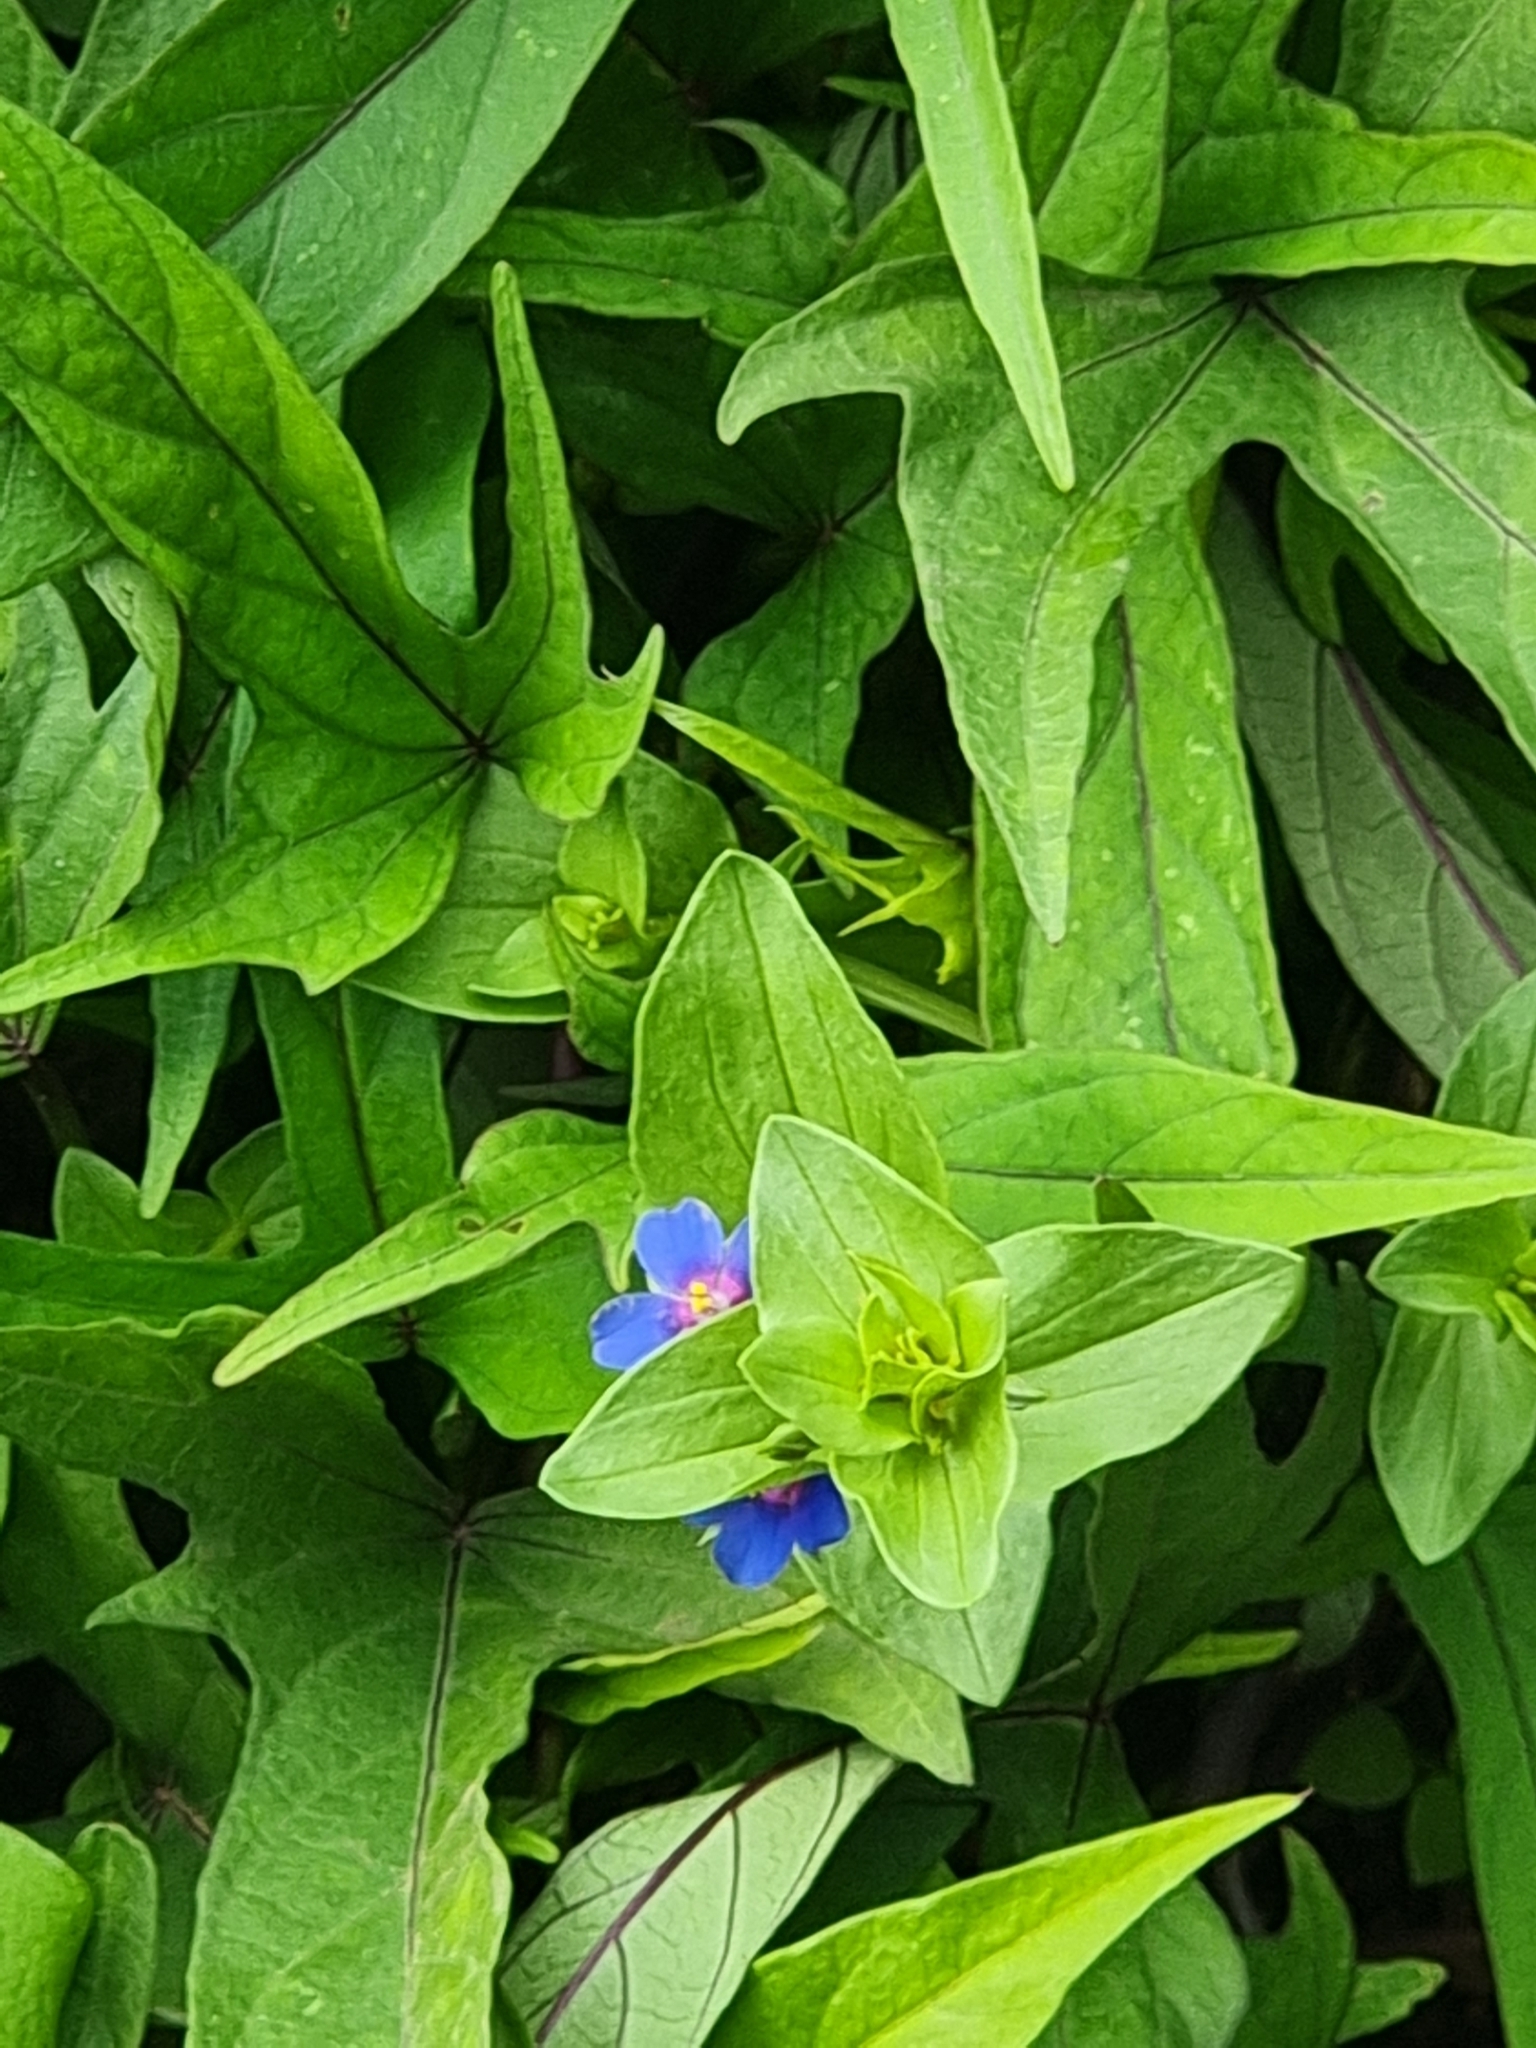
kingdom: Plantae
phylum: Tracheophyta
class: Magnoliopsida
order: Ericales
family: Primulaceae
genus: Lysimachia
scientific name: Lysimachia loeflingii
